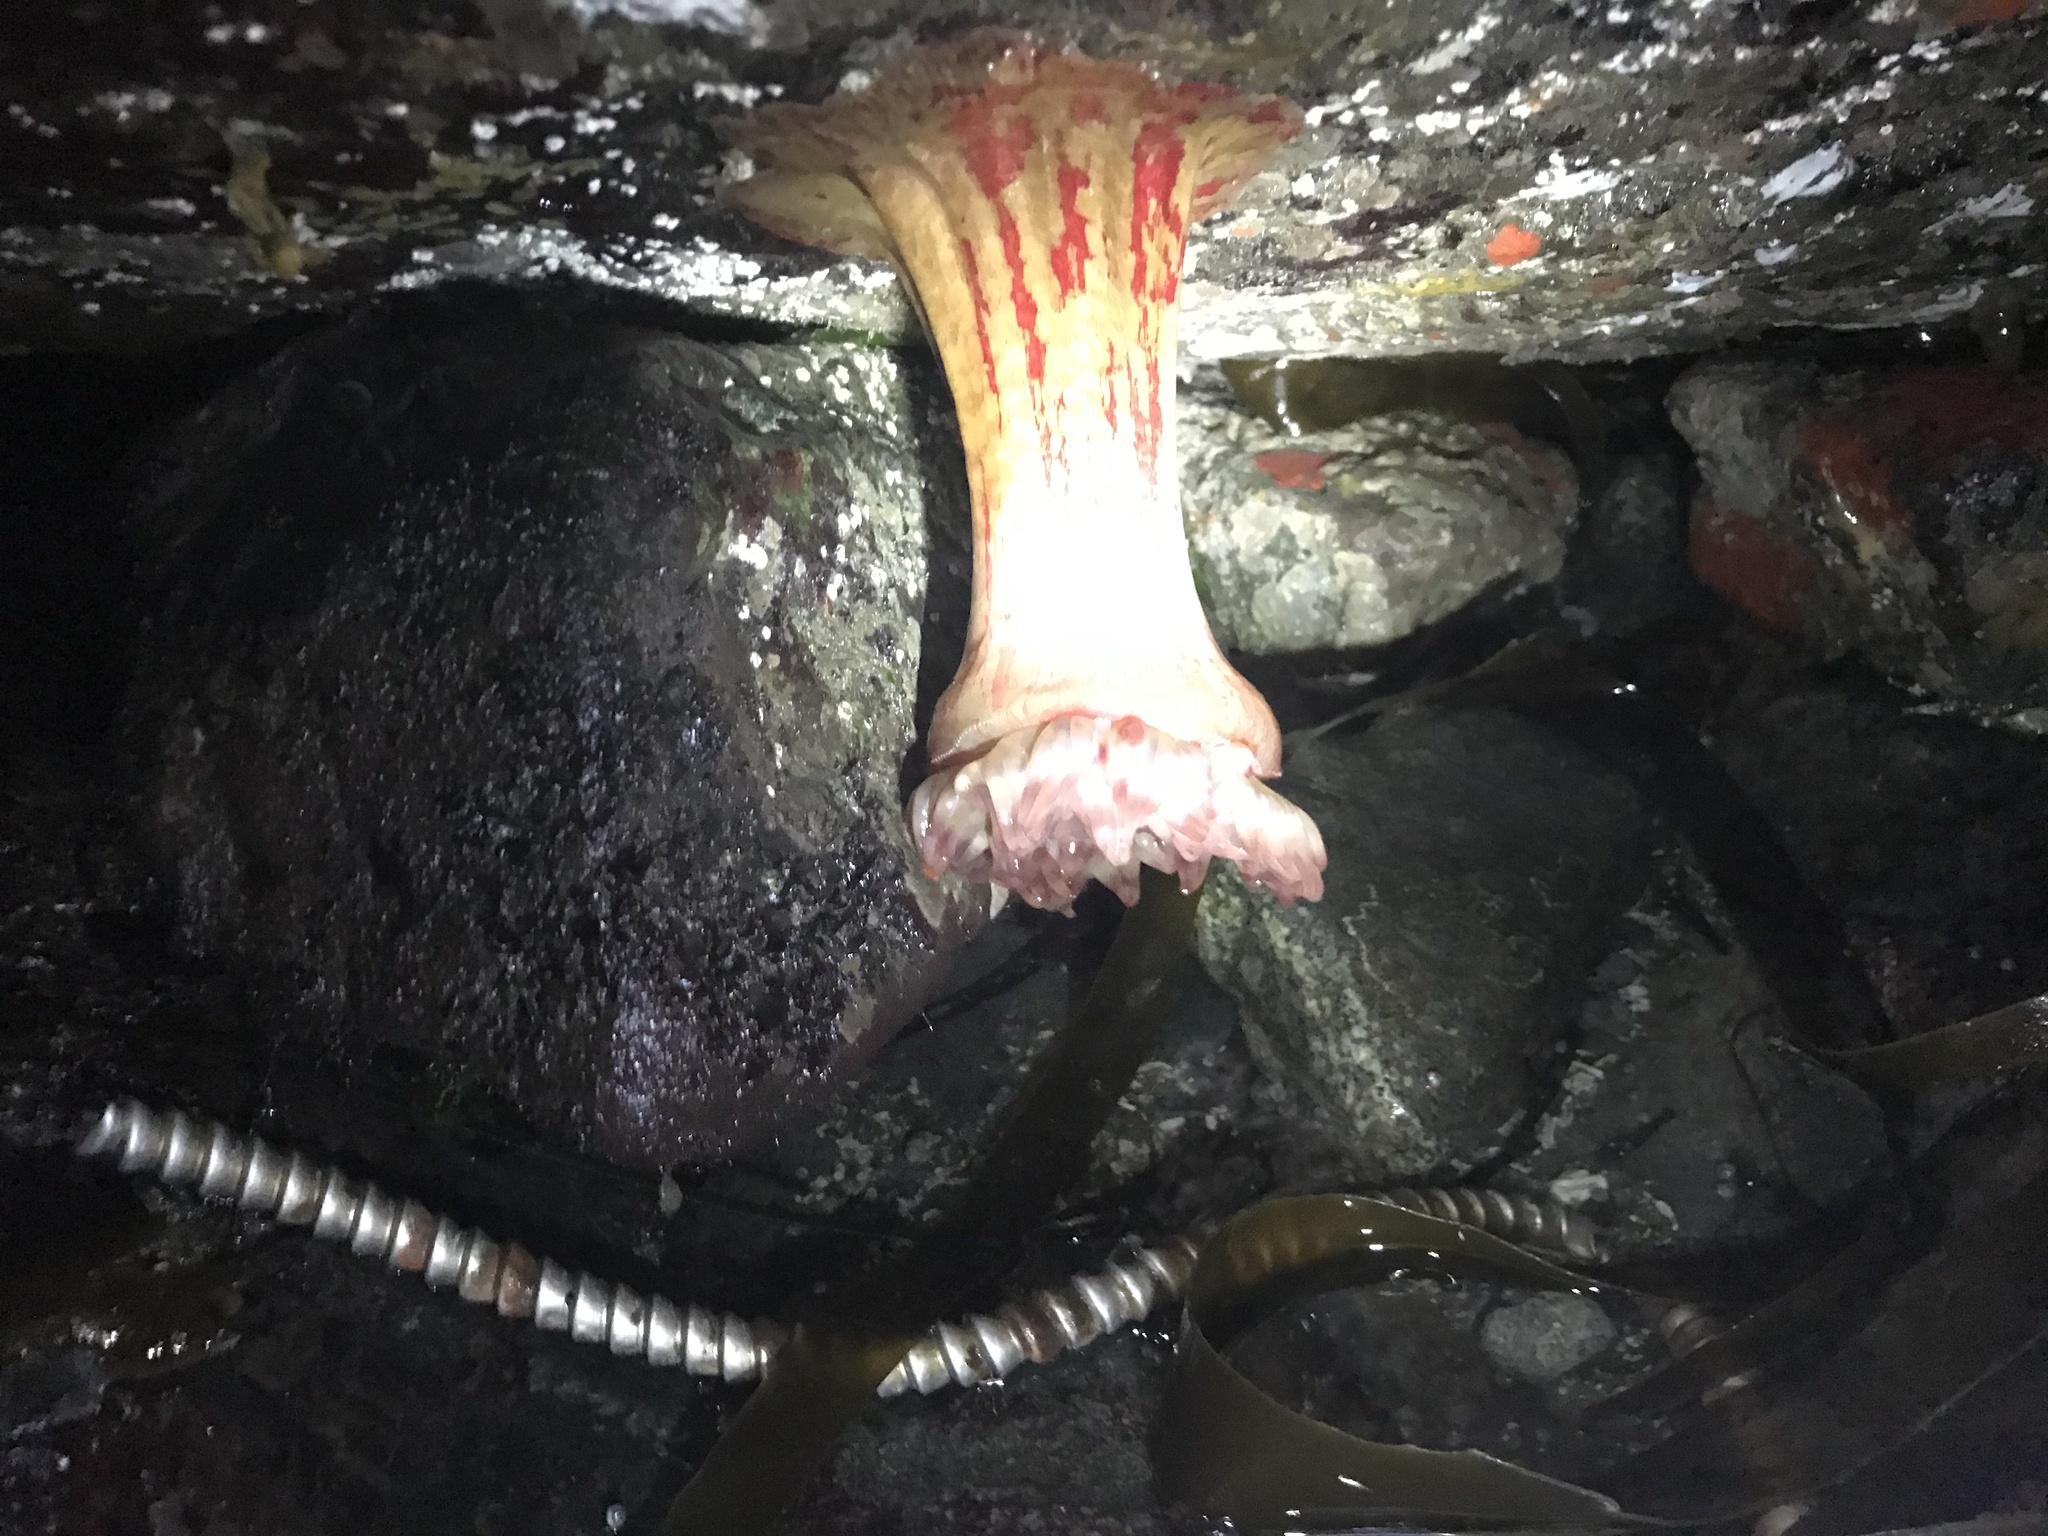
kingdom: Animalia
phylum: Cnidaria
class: Anthozoa
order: Actiniaria
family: Actiniidae
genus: Urticina
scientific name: Urticina grebelnyi
